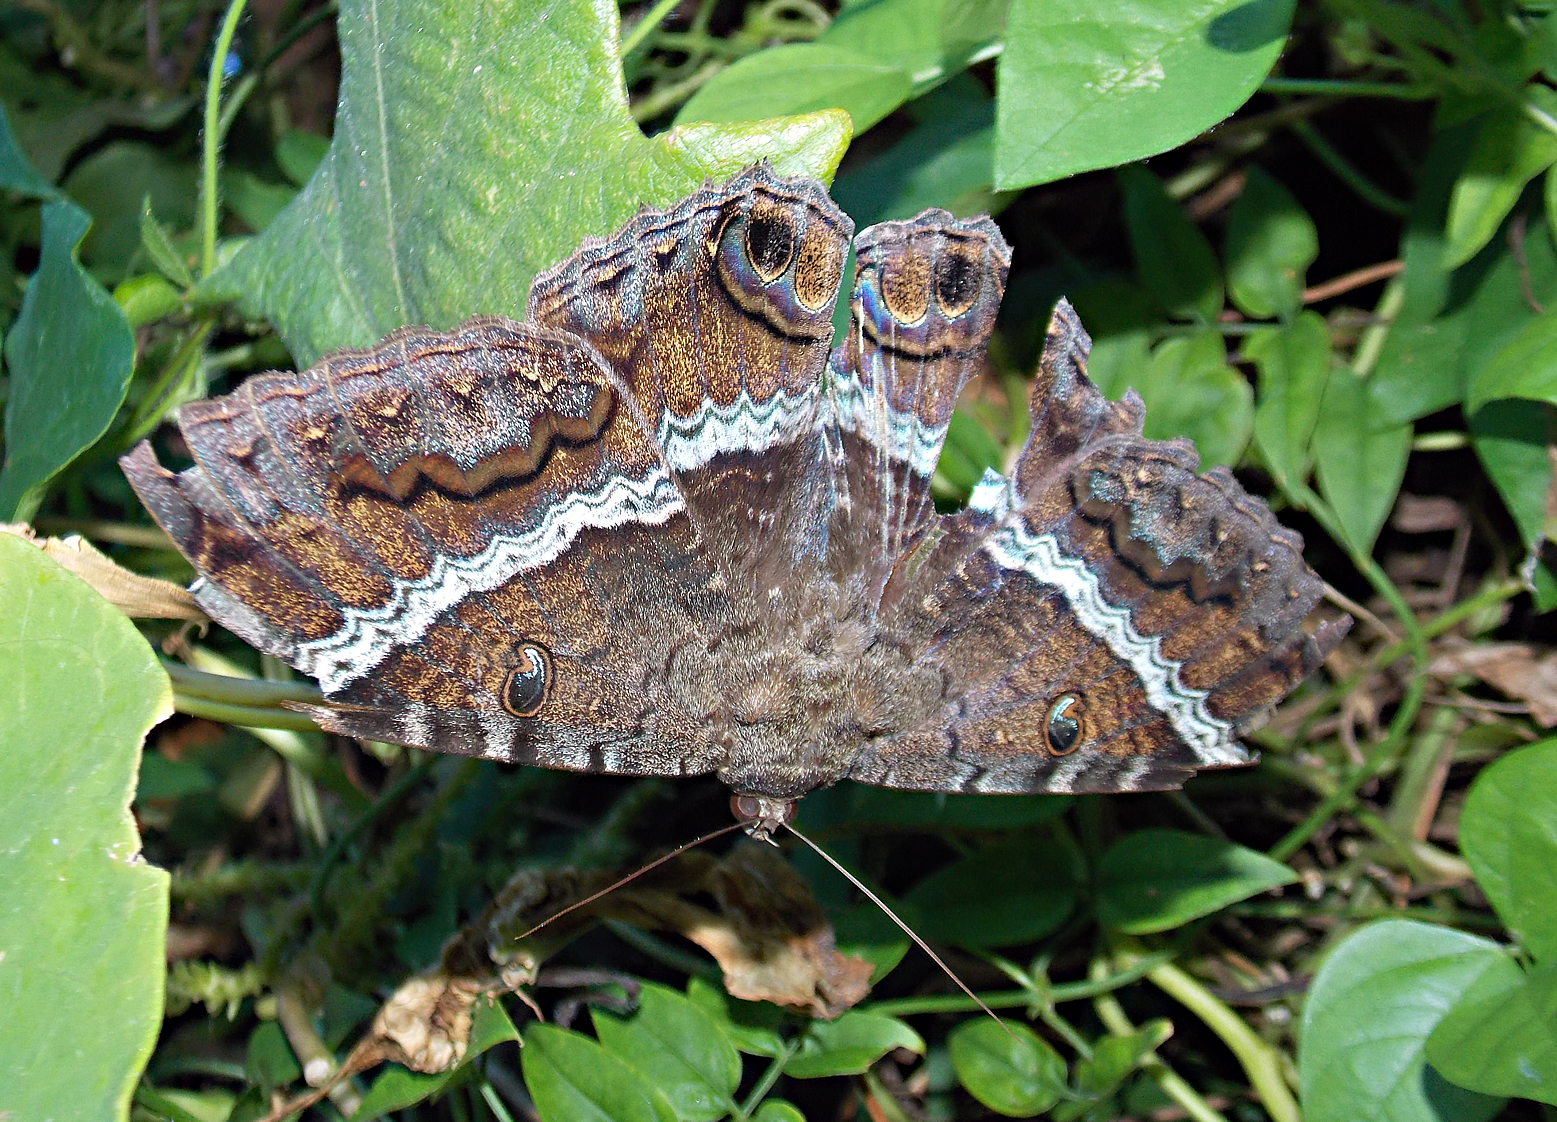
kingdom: Animalia
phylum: Arthropoda
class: Insecta
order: Lepidoptera
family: Erebidae
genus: Ascalapha
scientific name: Ascalapha odorata
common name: Black witch
